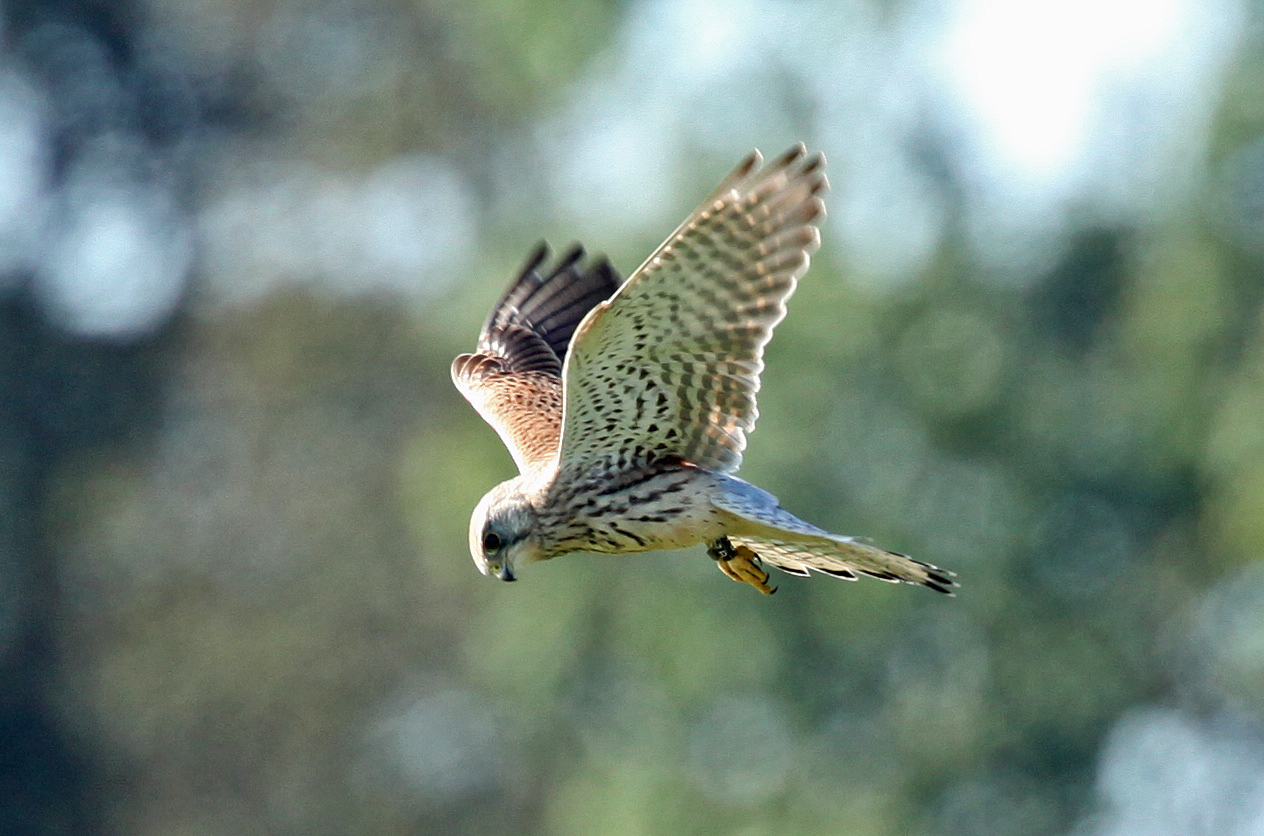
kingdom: Animalia
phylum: Chordata
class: Aves
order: Falconiformes
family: Falconidae
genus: Falco
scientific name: Falco tinnunculus
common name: Common kestrel
